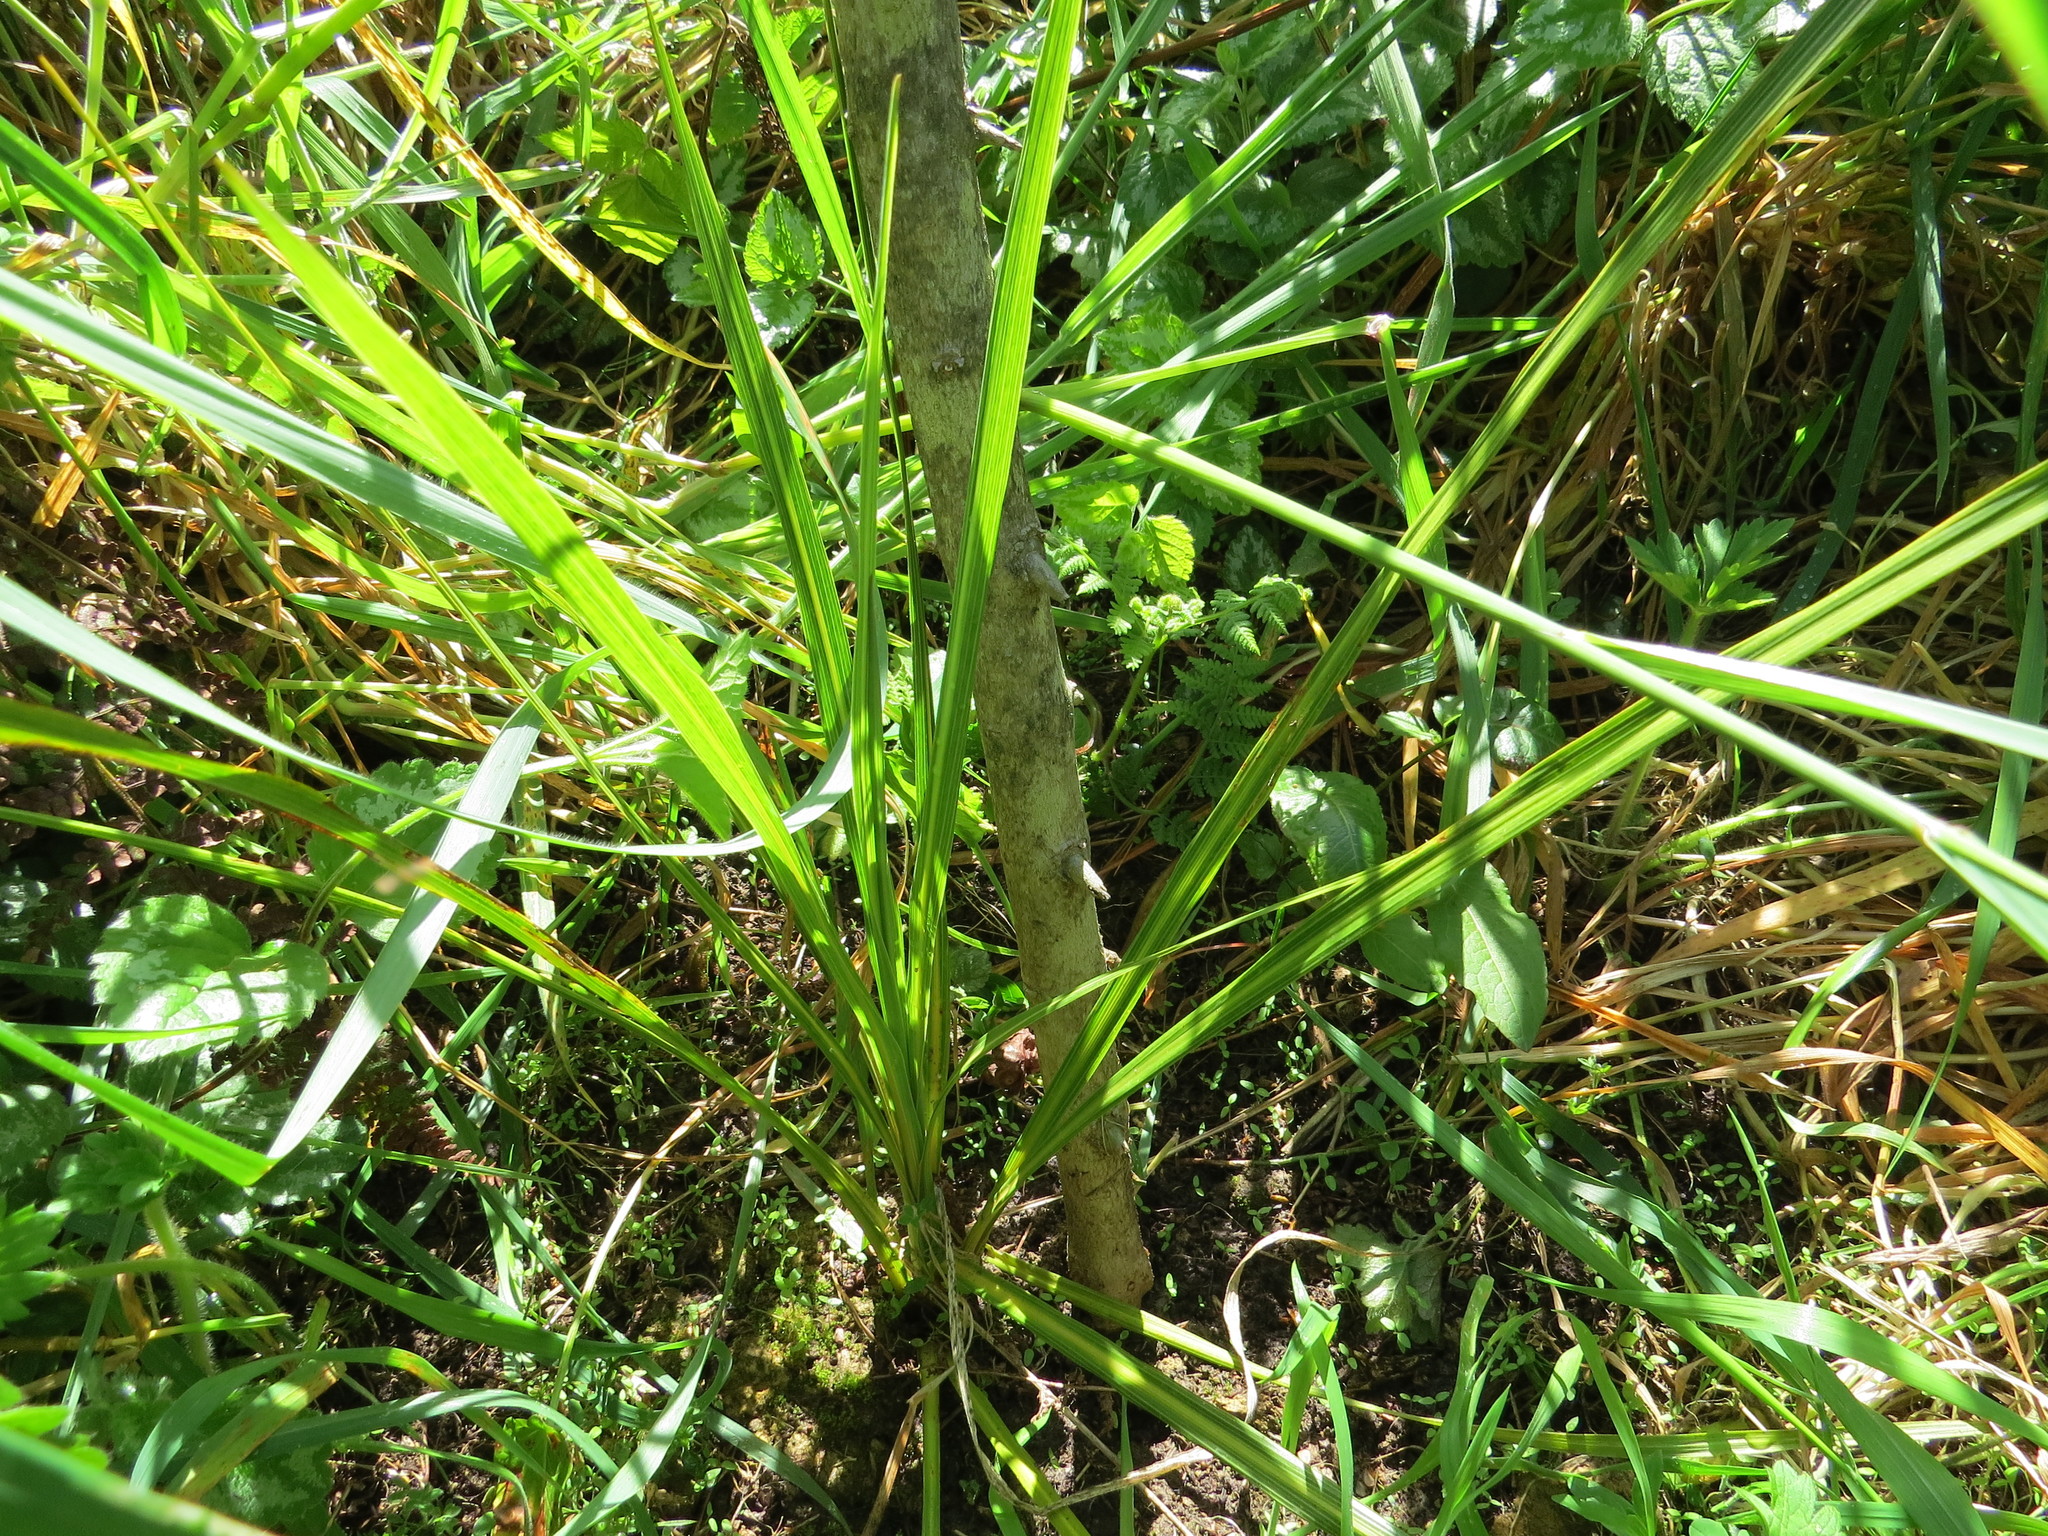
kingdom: Plantae
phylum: Tracheophyta
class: Liliopsida
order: Asparagales
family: Asparagaceae
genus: Cordyline
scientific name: Cordyline australis
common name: Cabbage-palm
